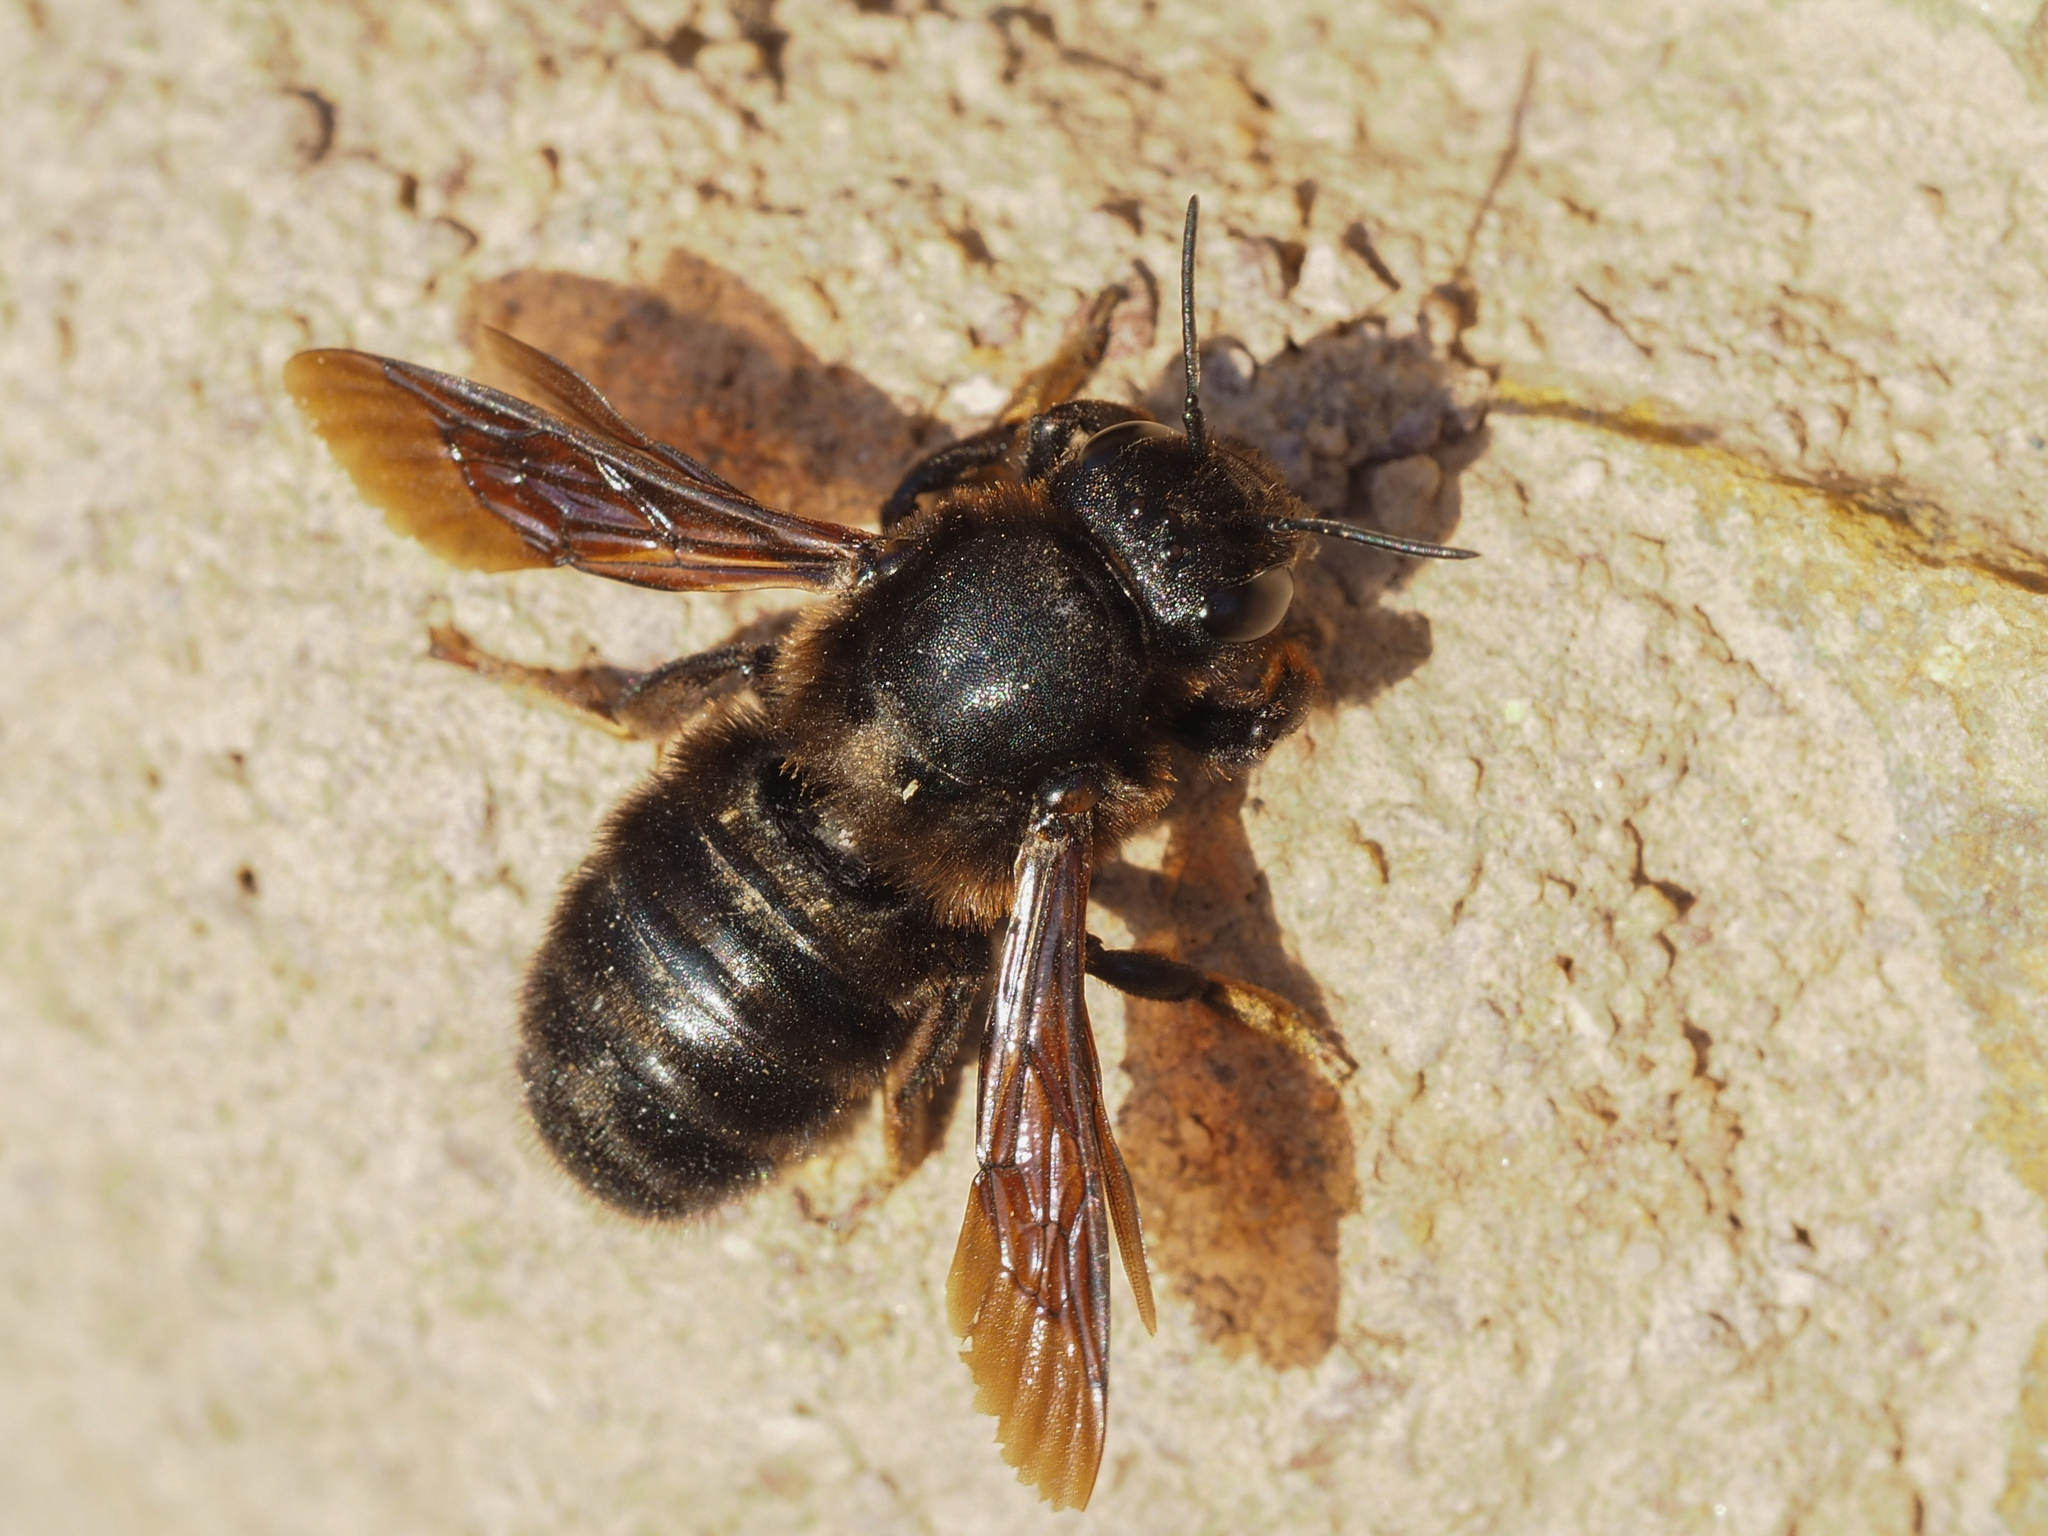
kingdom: Animalia
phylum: Arthropoda
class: Insecta
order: Hymenoptera
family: Megachilidae
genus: Megachile
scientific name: Megachile parietina
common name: Black mud bee
